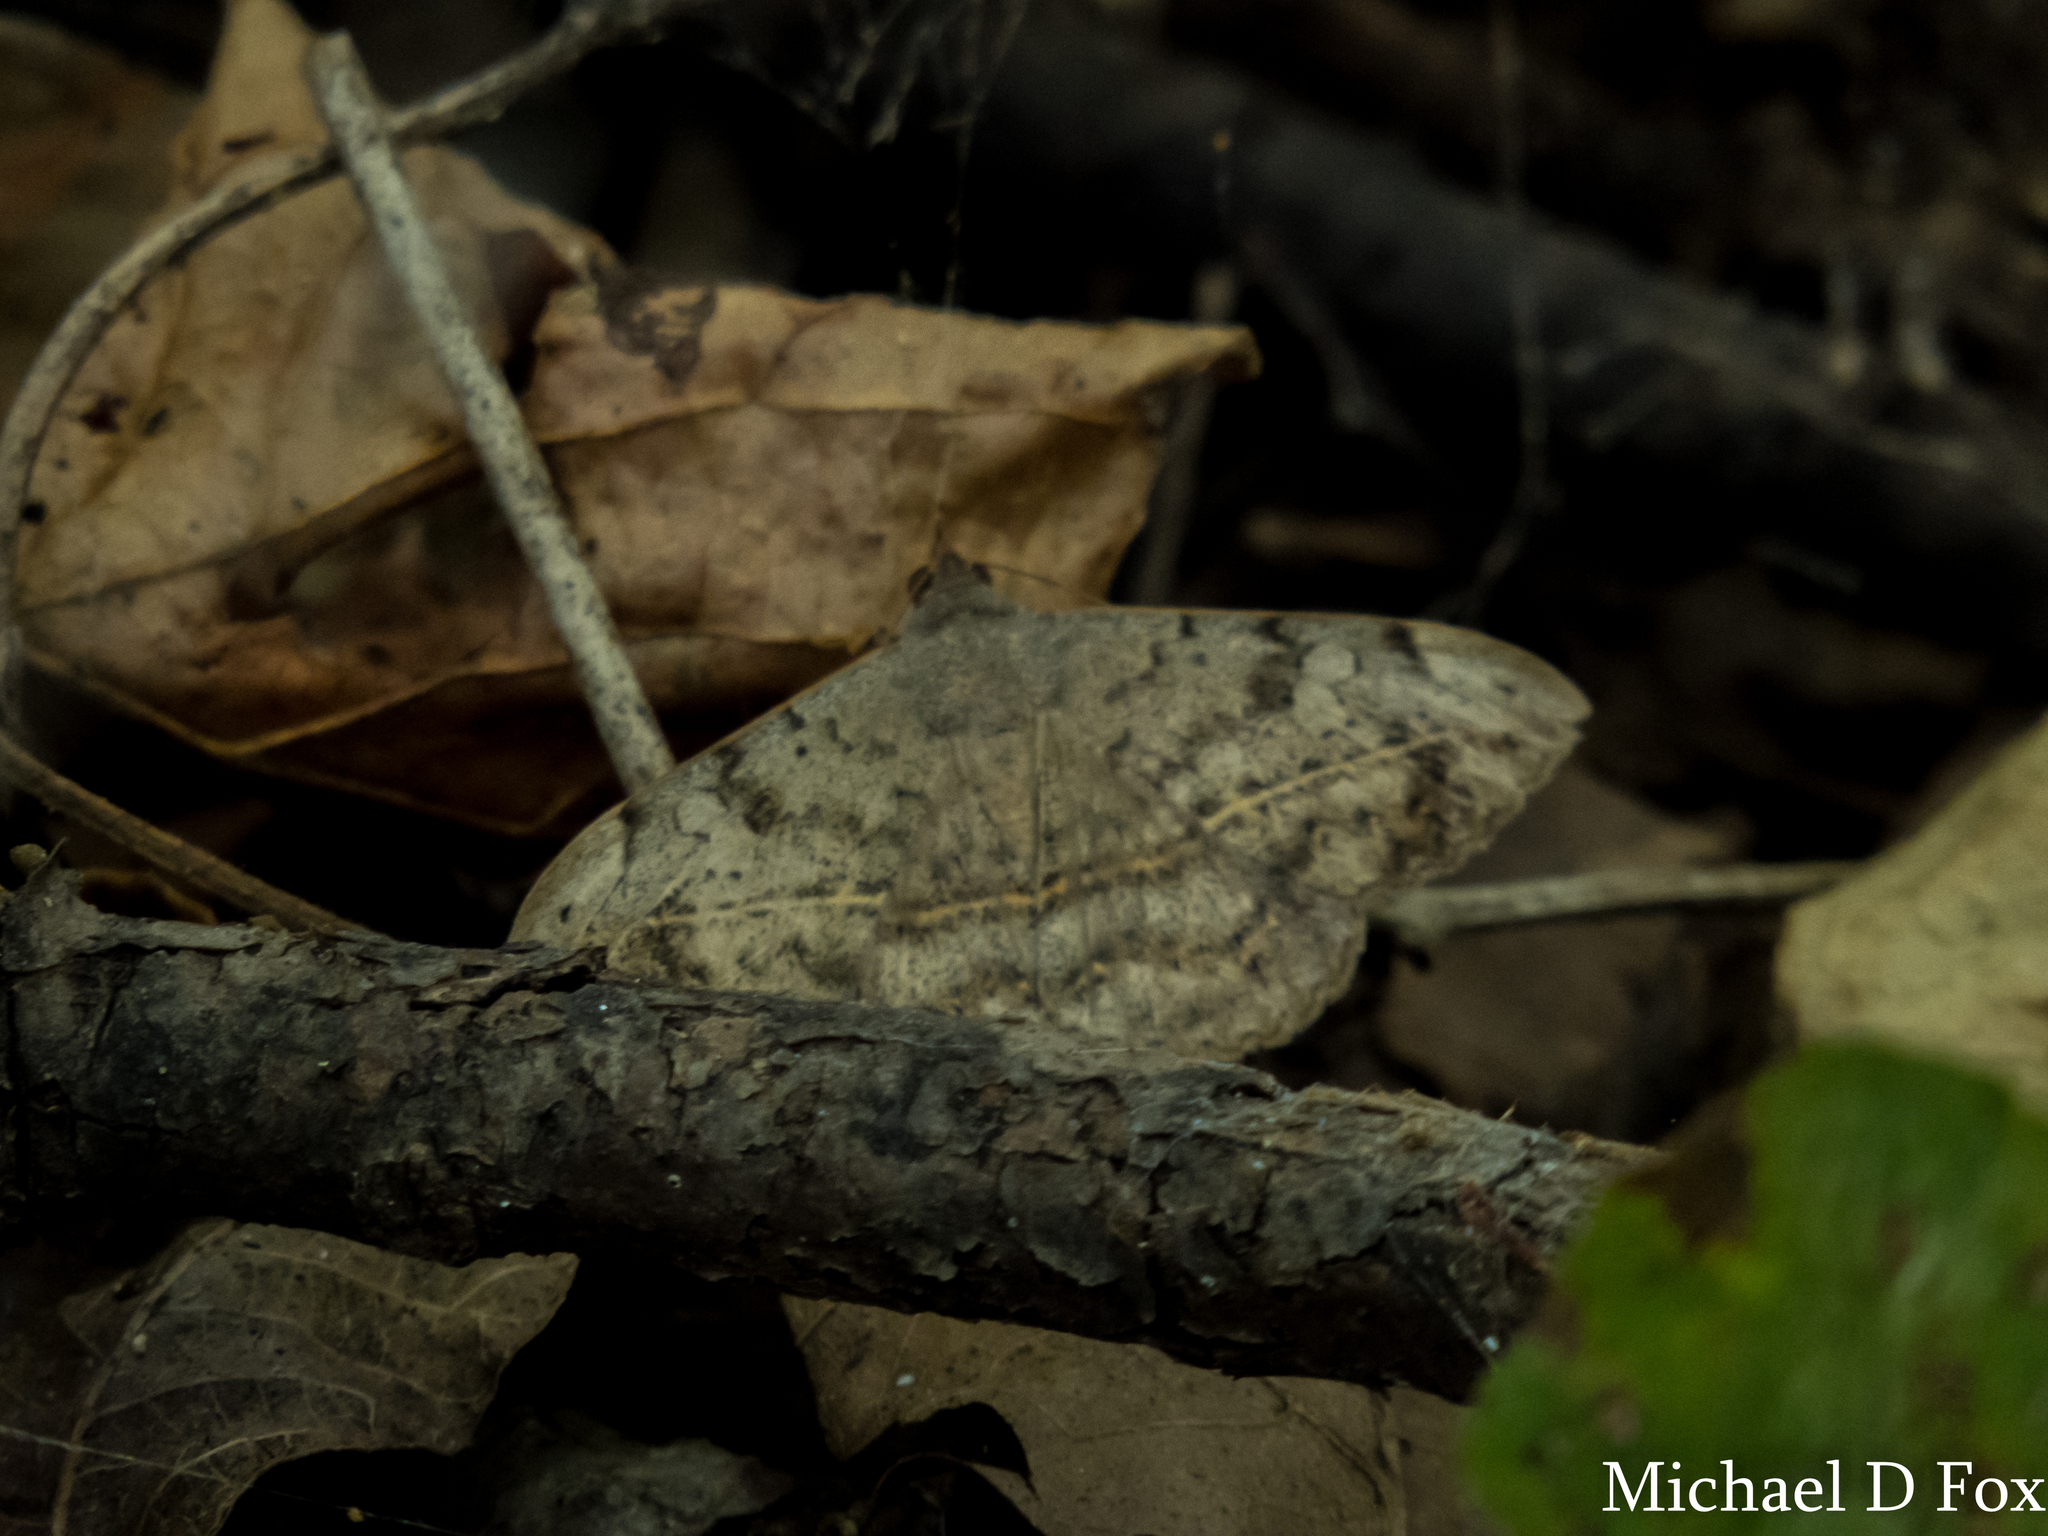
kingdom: Animalia
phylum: Arthropoda
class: Insecta
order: Lepidoptera
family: Erebidae
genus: Anticarsia
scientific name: Anticarsia gemmatalis
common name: Cutworm moth
